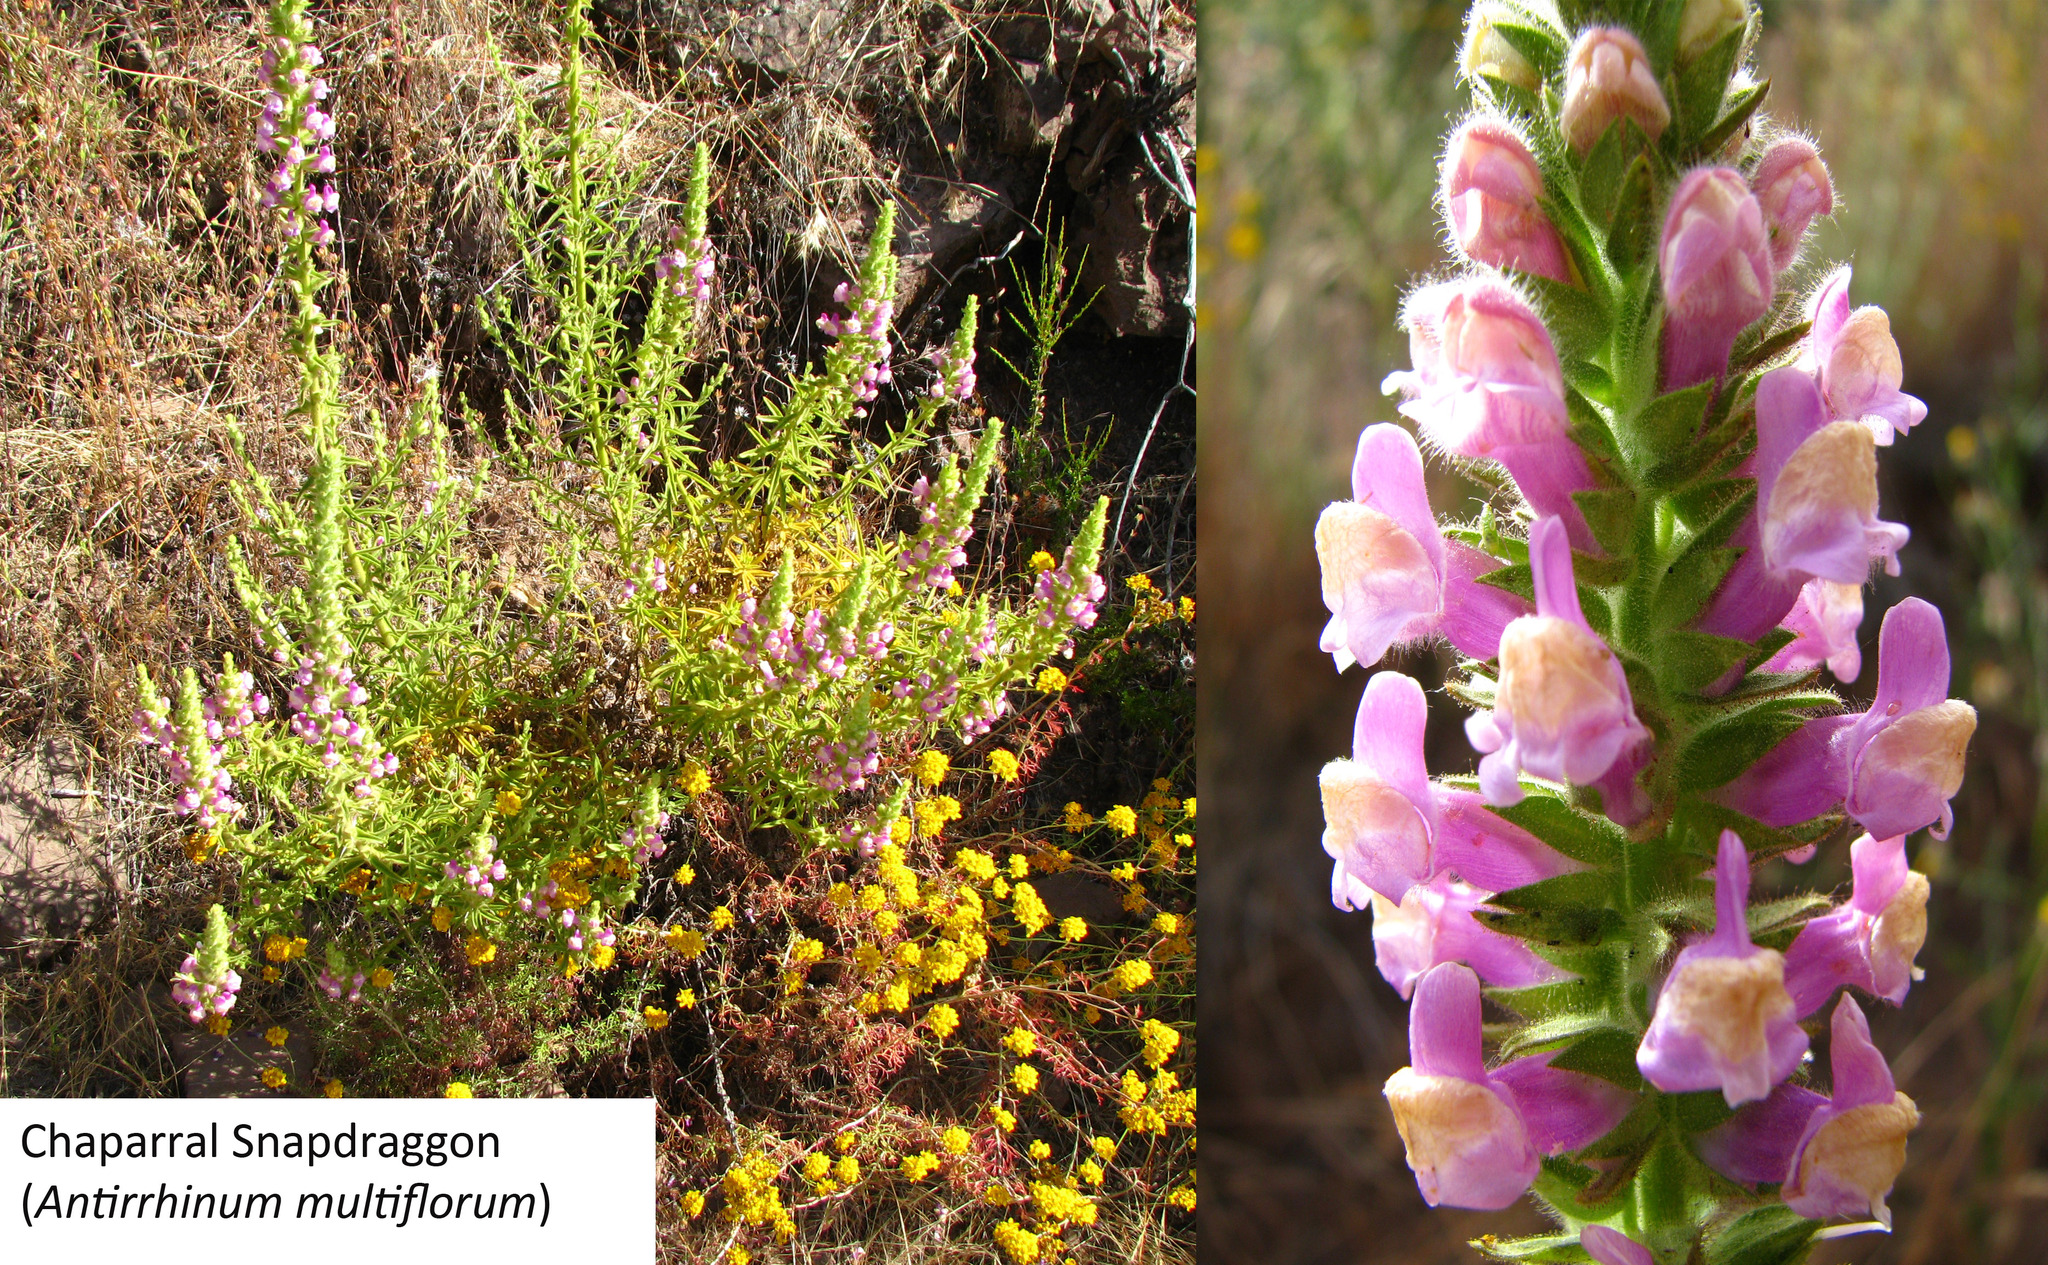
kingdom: Plantae
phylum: Tracheophyta
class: Magnoliopsida
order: Lamiales
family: Plantaginaceae
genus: Sairocarpus
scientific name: Sairocarpus multiflorus
